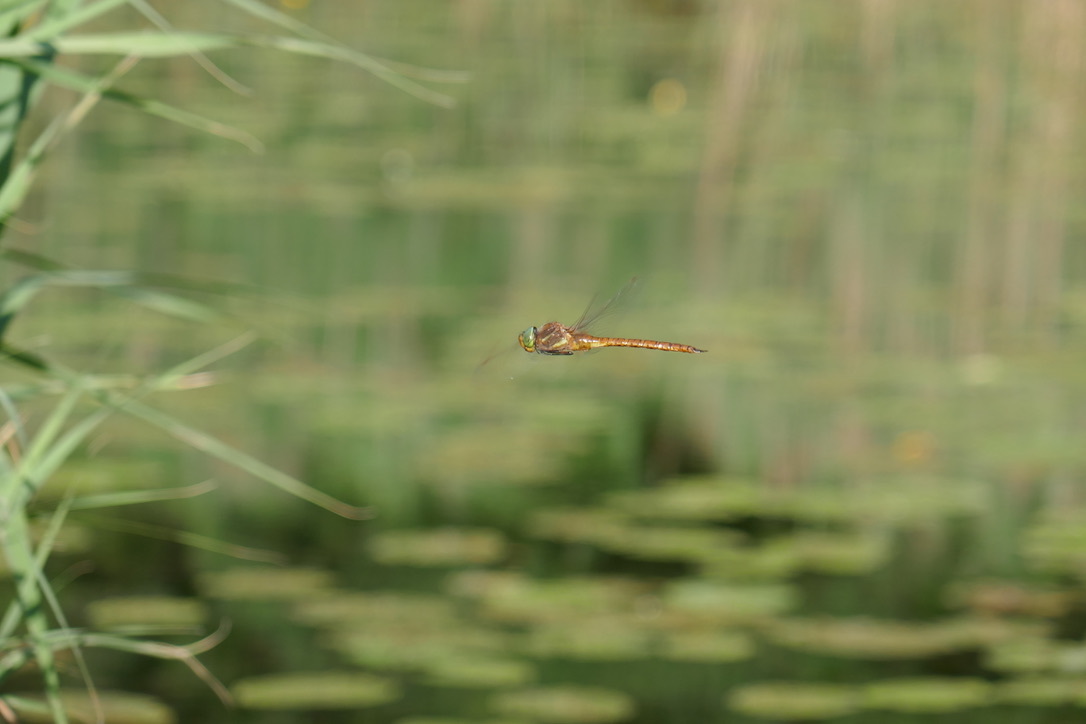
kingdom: Animalia
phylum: Arthropoda
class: Insecta
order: Odonata
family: Aeshnidae
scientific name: Aeshnidae
